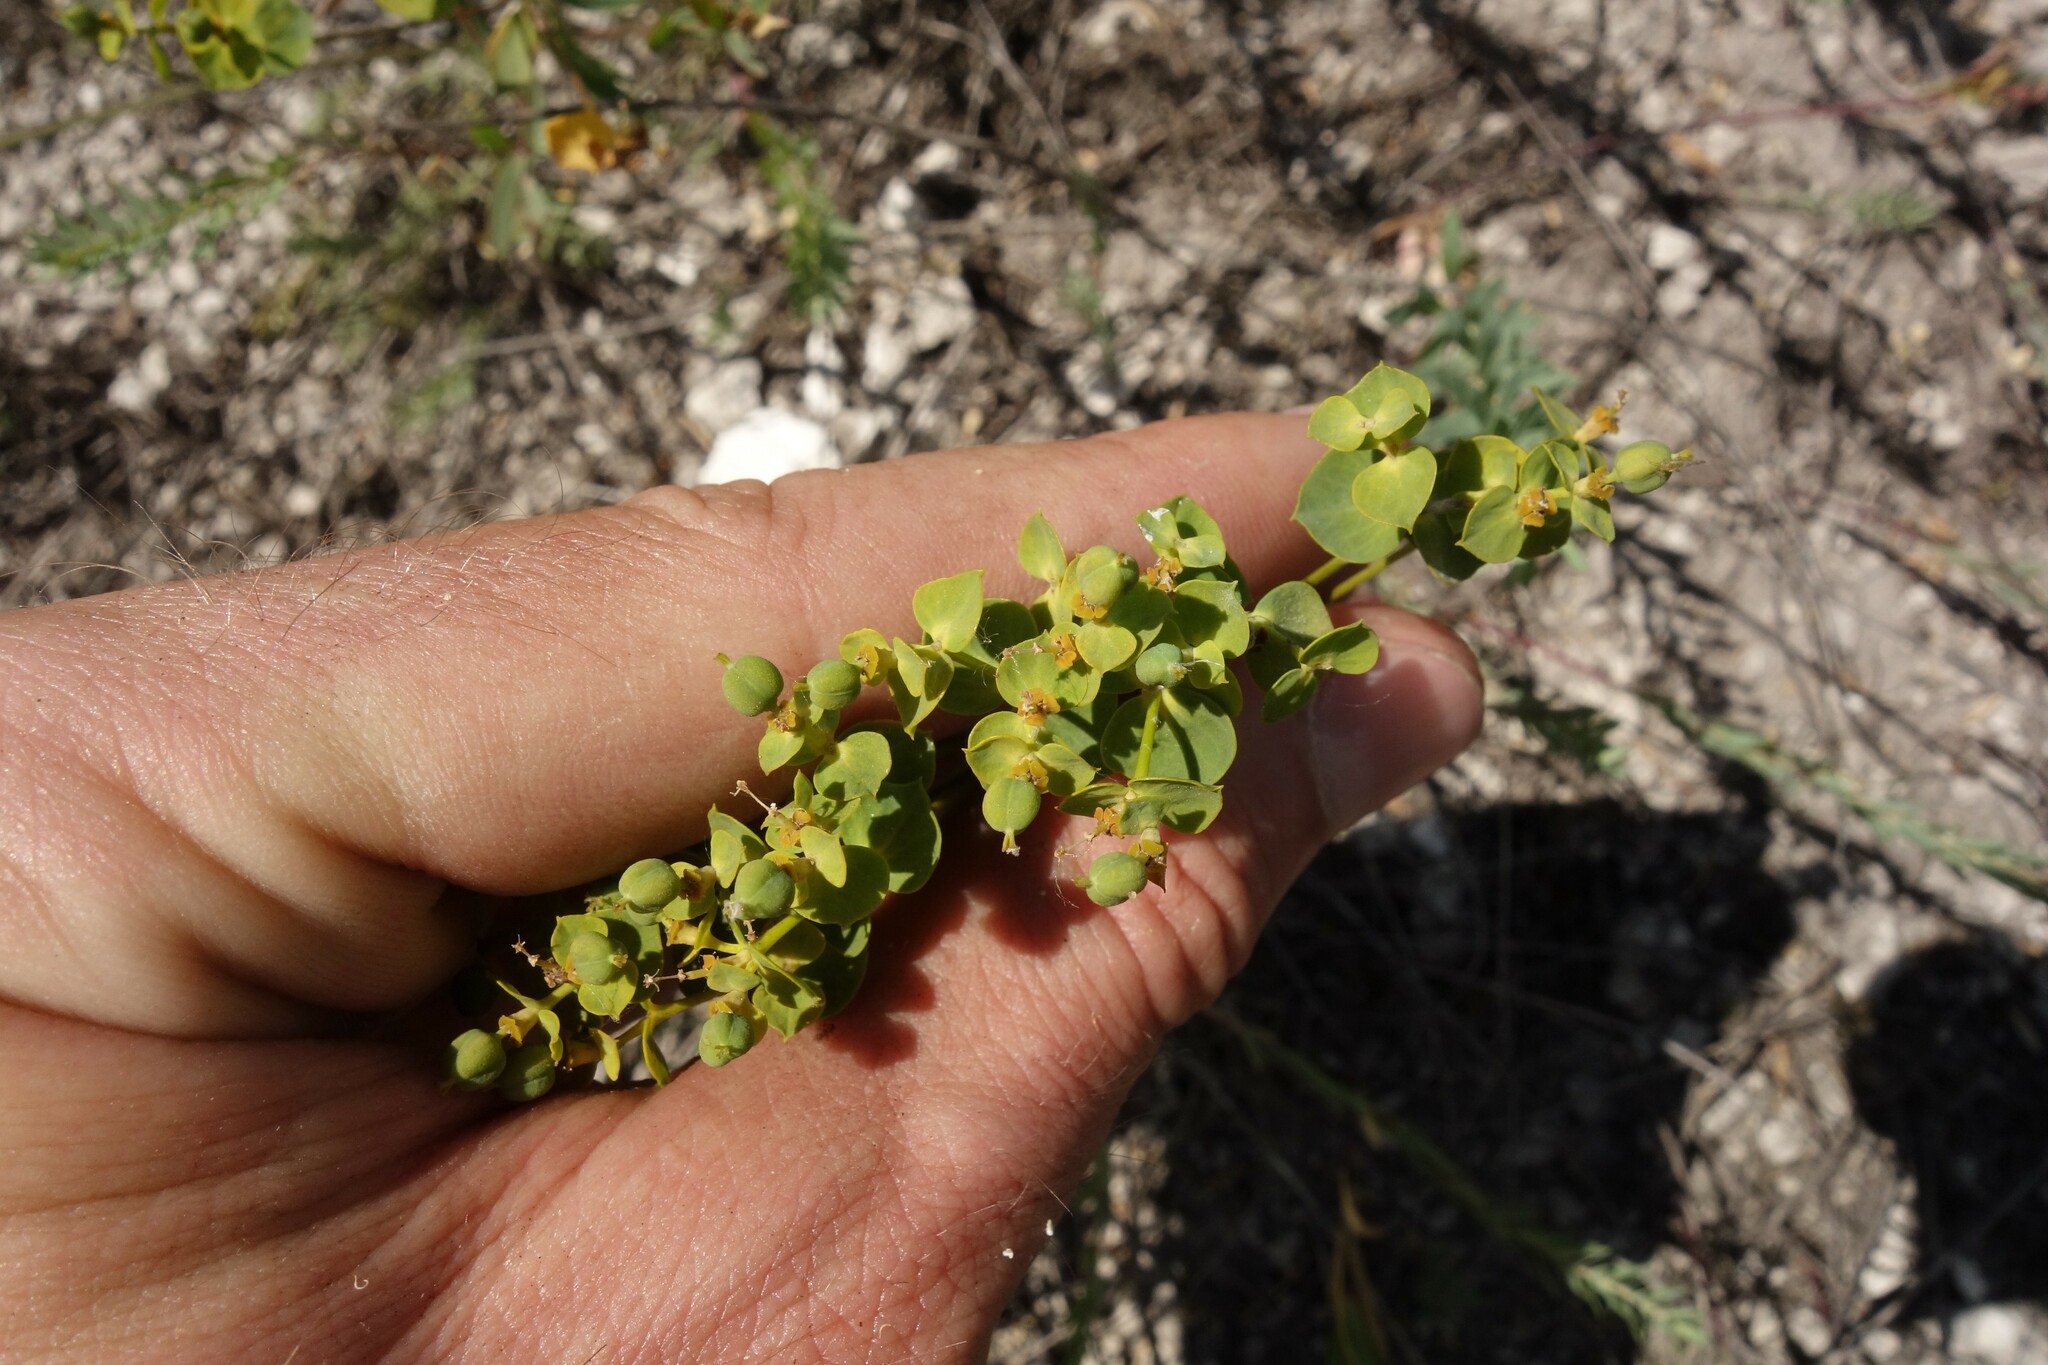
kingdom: Plantae
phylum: Tracheophyta
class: Magnoliopsida
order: Malpighiales
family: Euphorbiaceae
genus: Euphorbia
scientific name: Euphorbia seguieriana
